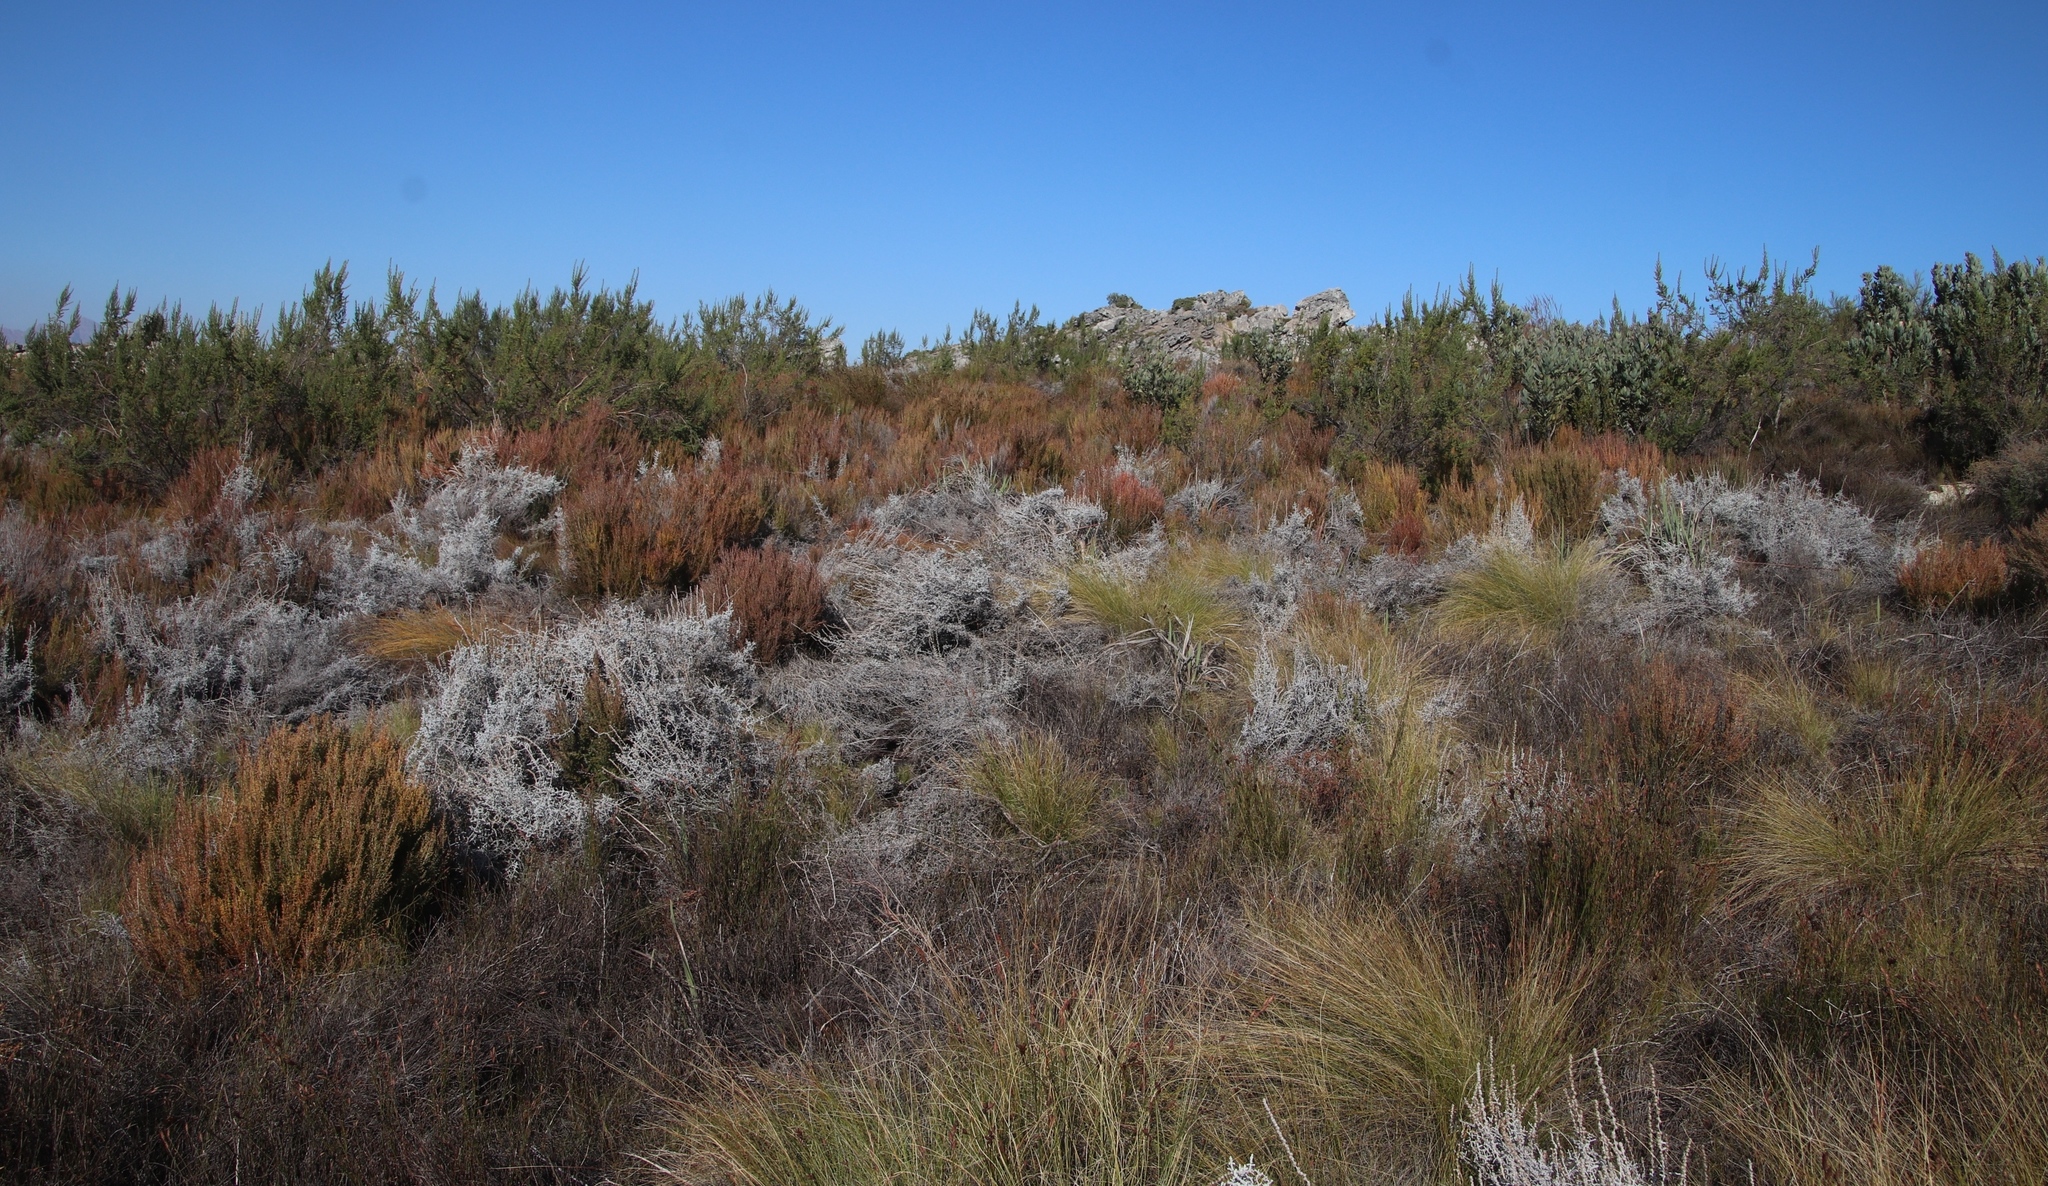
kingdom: Plantae
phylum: Tracheophyta
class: Magnoliopsida
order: Asterales
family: Asteraceae
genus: Seriphium
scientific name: Seriphium plumosum
